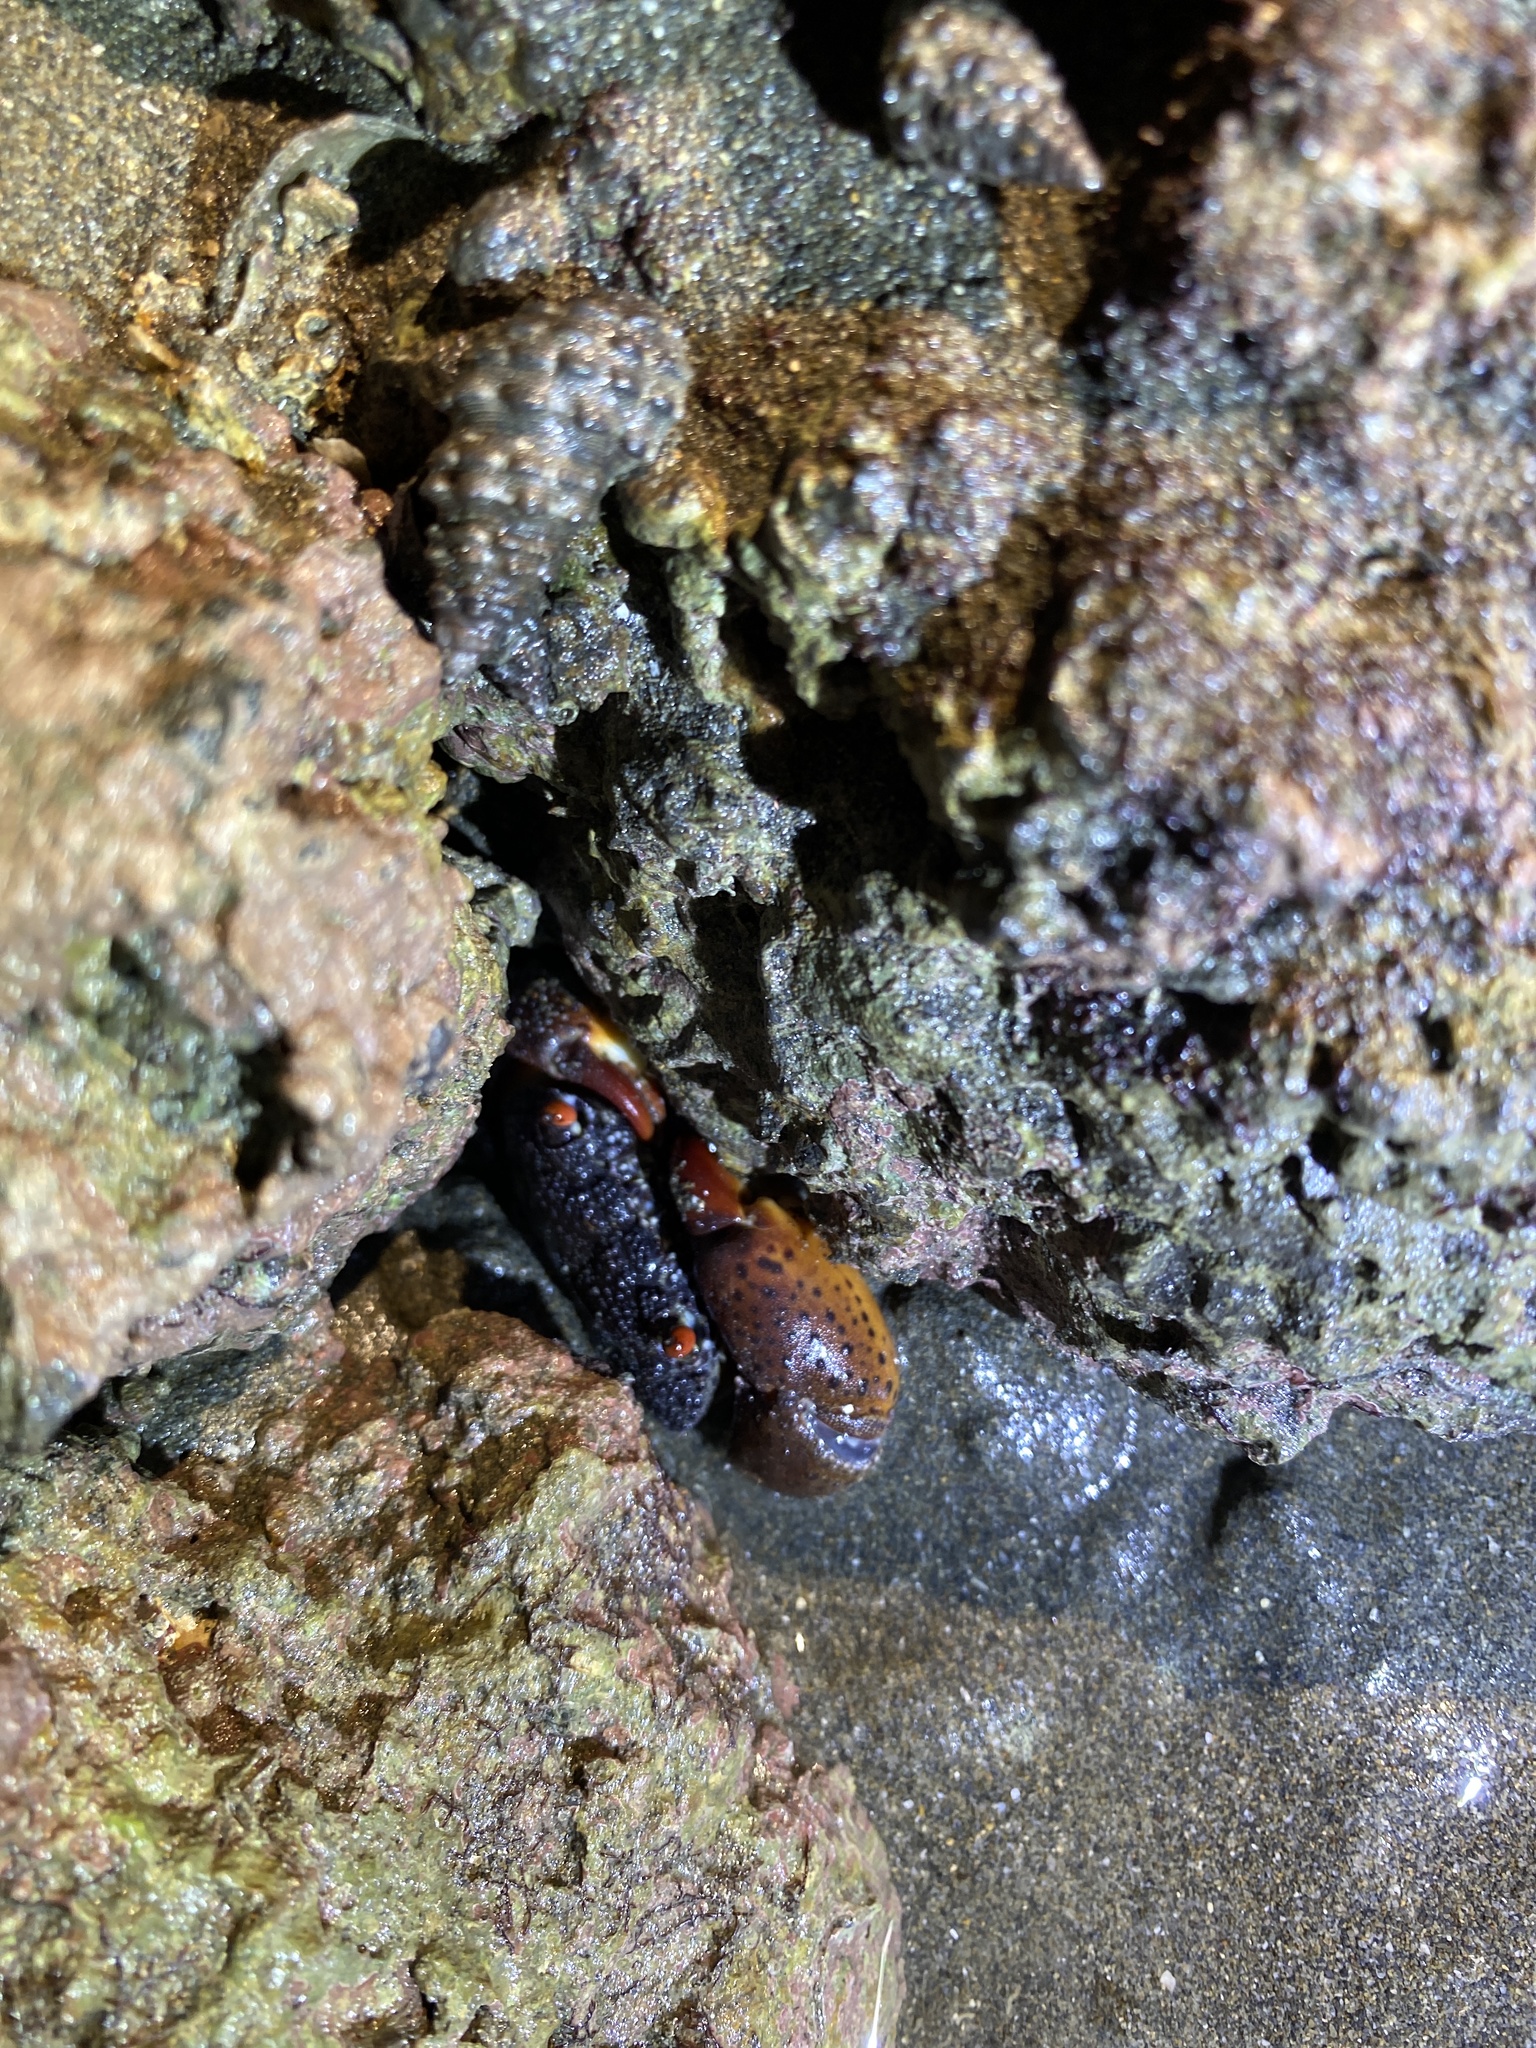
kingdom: Animalia
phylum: Arthropoda
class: Malacostraca
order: Decapoda
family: Eriphiidae
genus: Eriphia
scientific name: Eriphia ferox
